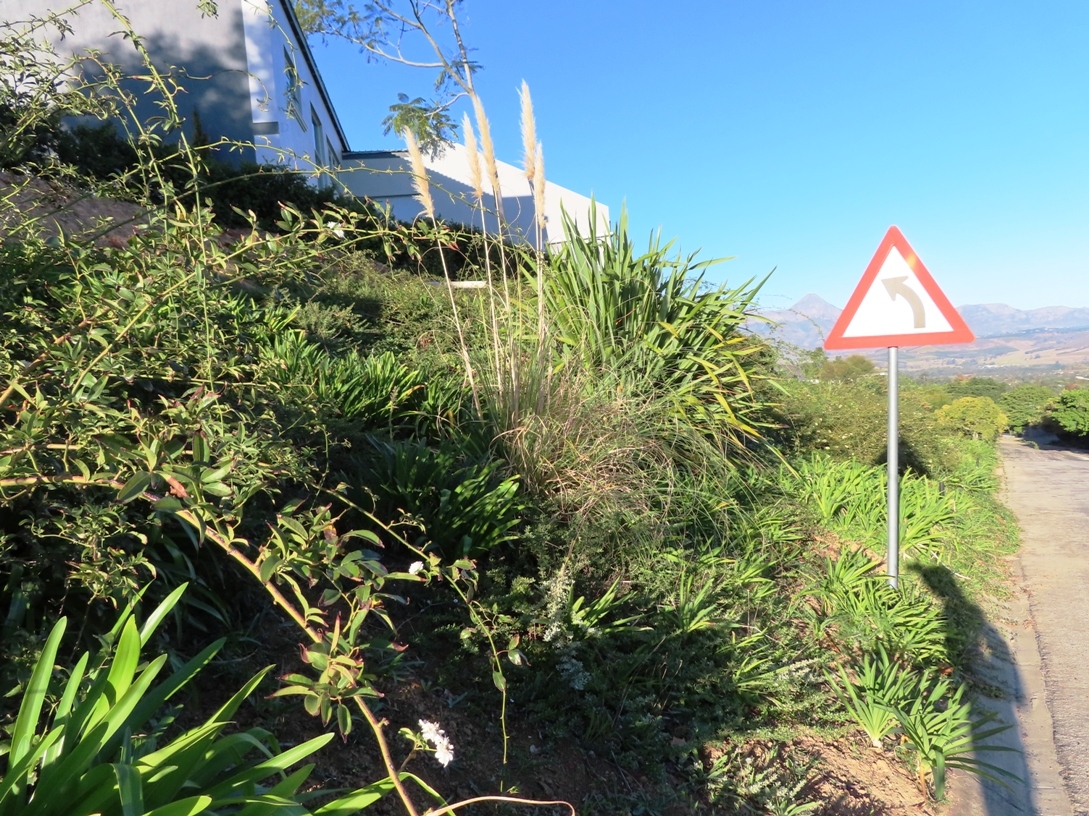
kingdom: Plantae
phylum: Tracheophyta
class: Liliopsida
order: Poales
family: Poaceae
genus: Cortaderia
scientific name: Cortaderia selloana
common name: Uruguayan pampas grass
